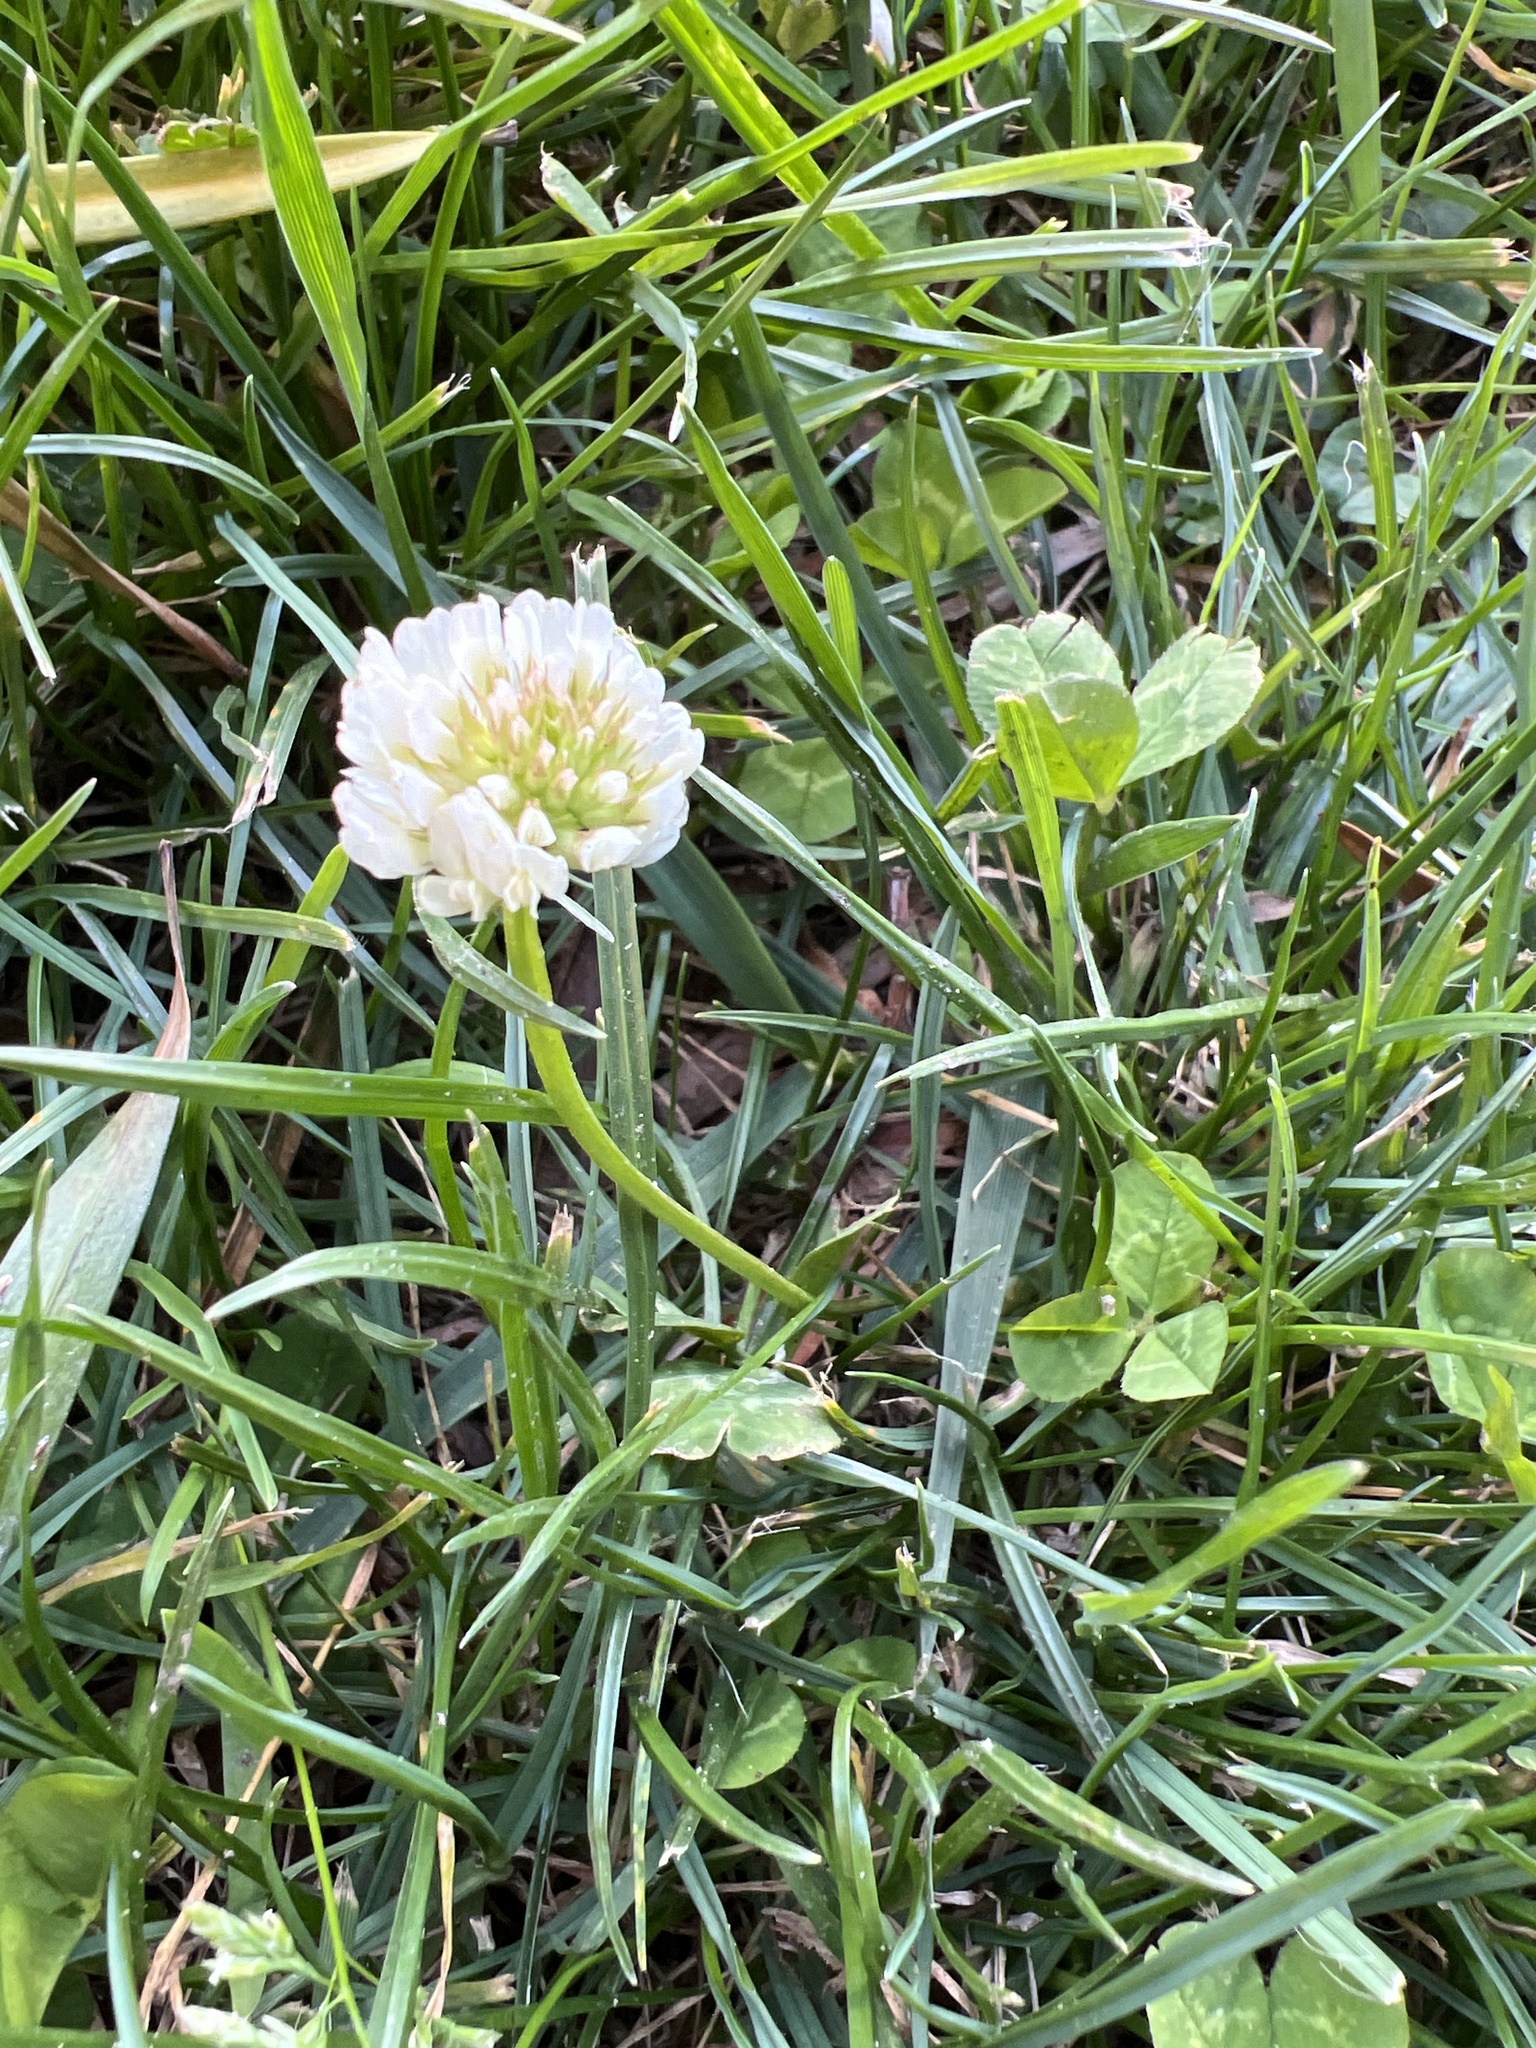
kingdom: Plantae
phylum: Tracheophyta
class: Magnoliopsida
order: Fabales
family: Fabaceae
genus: Trifolium
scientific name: Trifolium repens
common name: White clover
